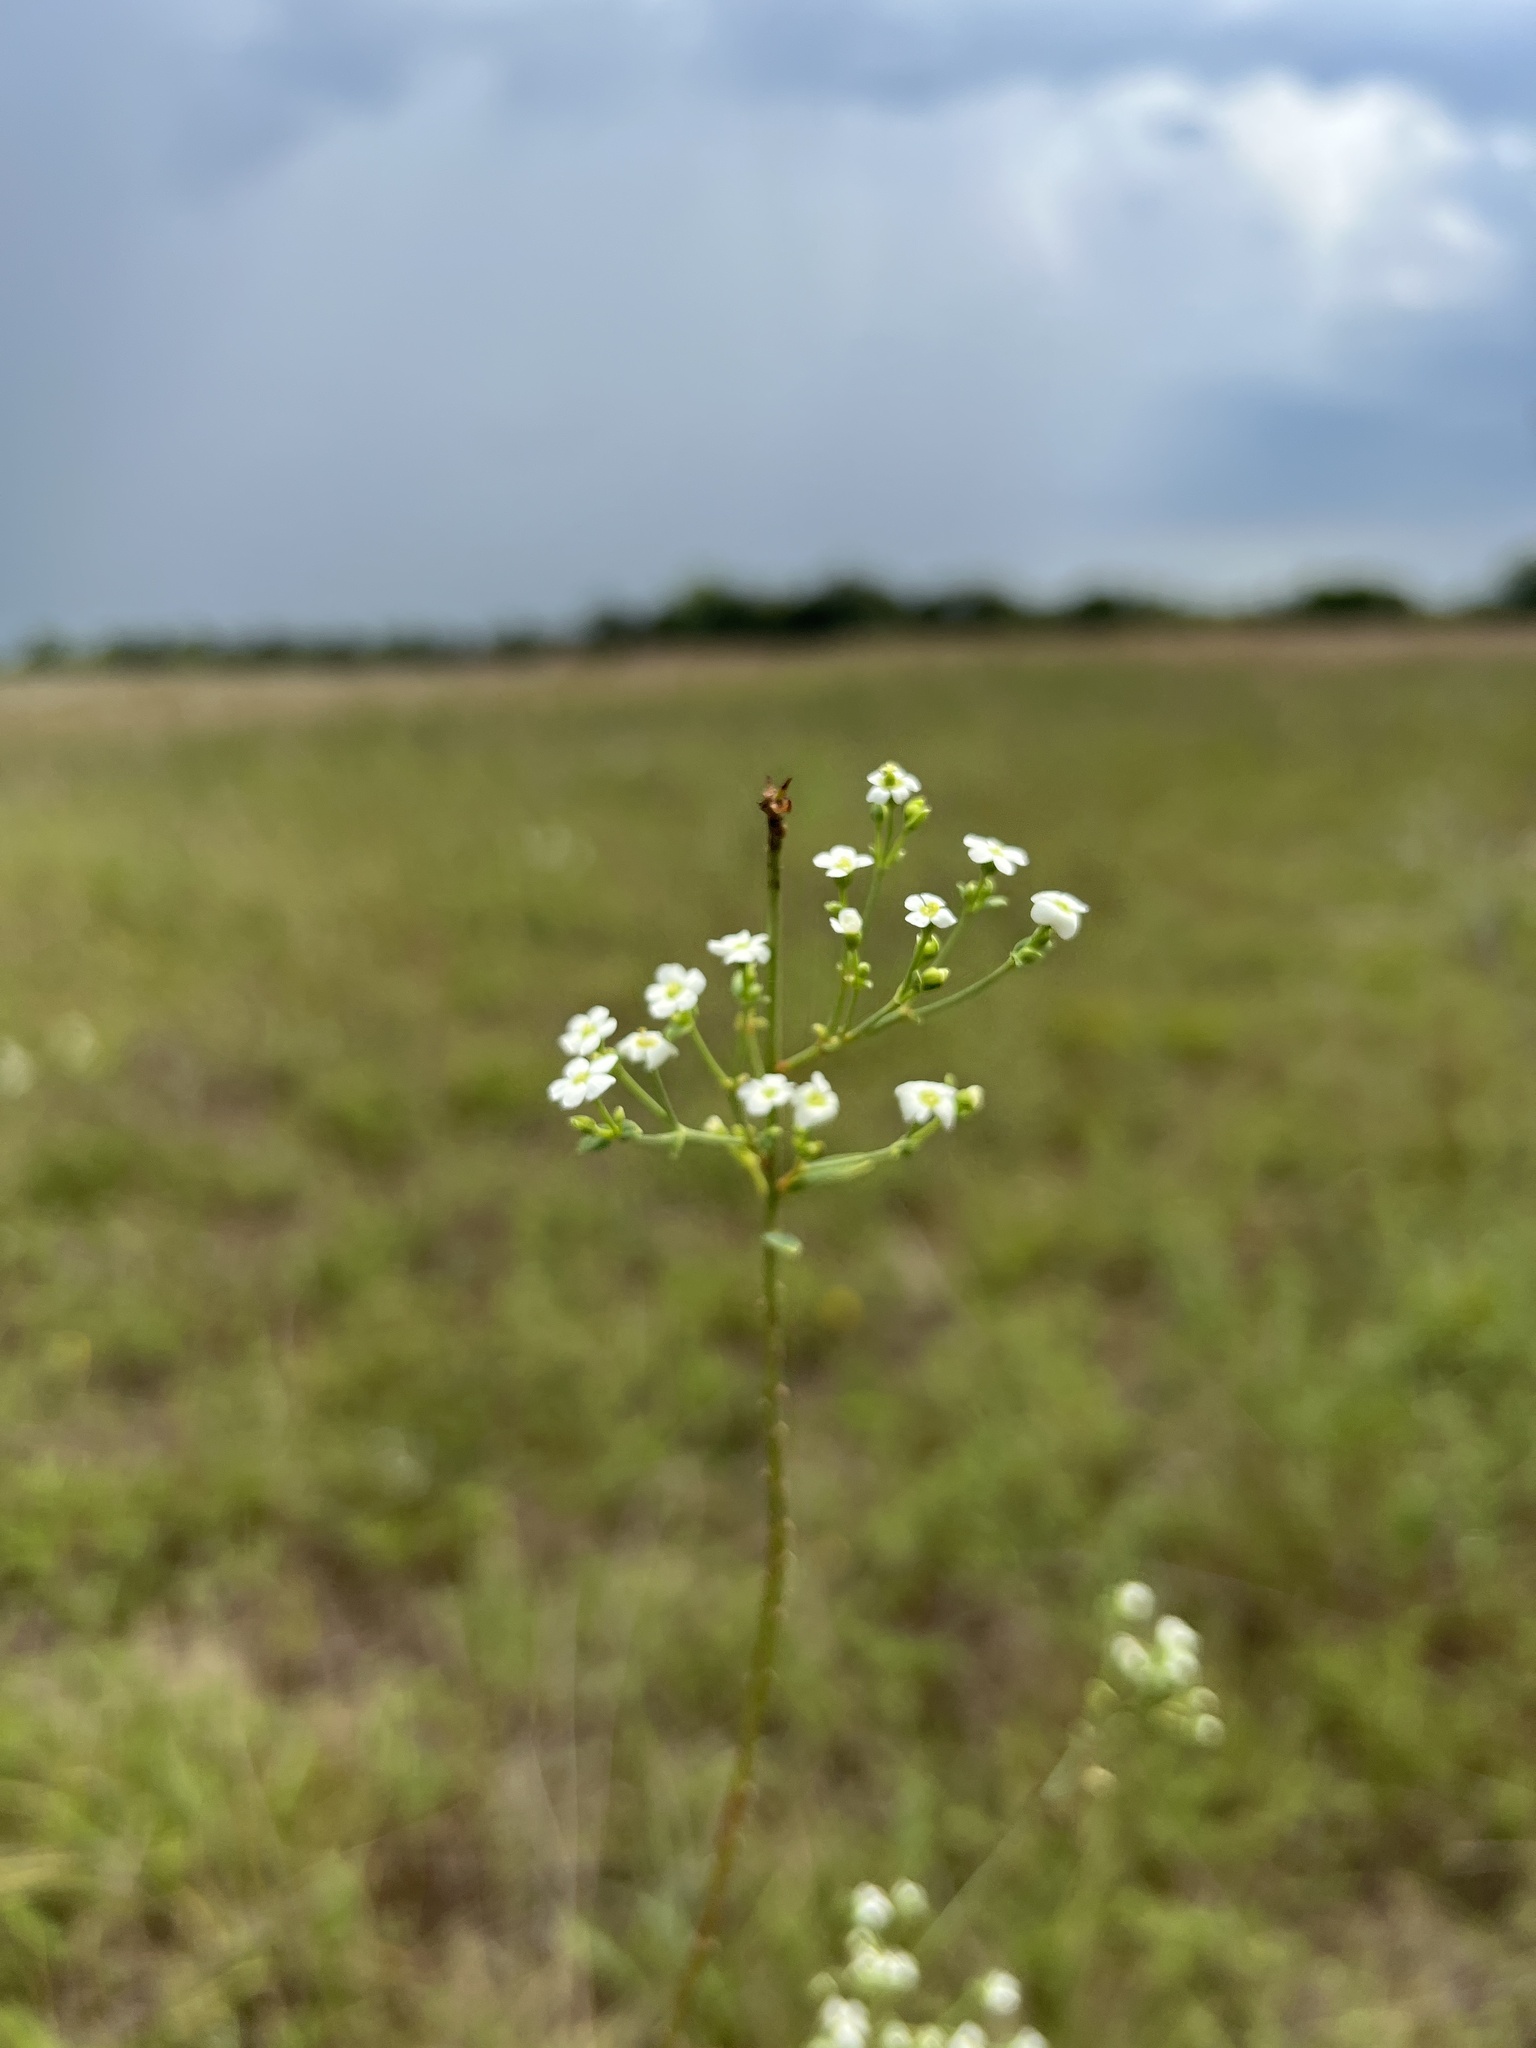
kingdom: Plantae
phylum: Tracheophyta
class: Magnoliopsida
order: Malpighiales
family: Euphorbiaceae
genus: Euphorbia
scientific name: Euphorbia corollata
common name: Flowering spurge
